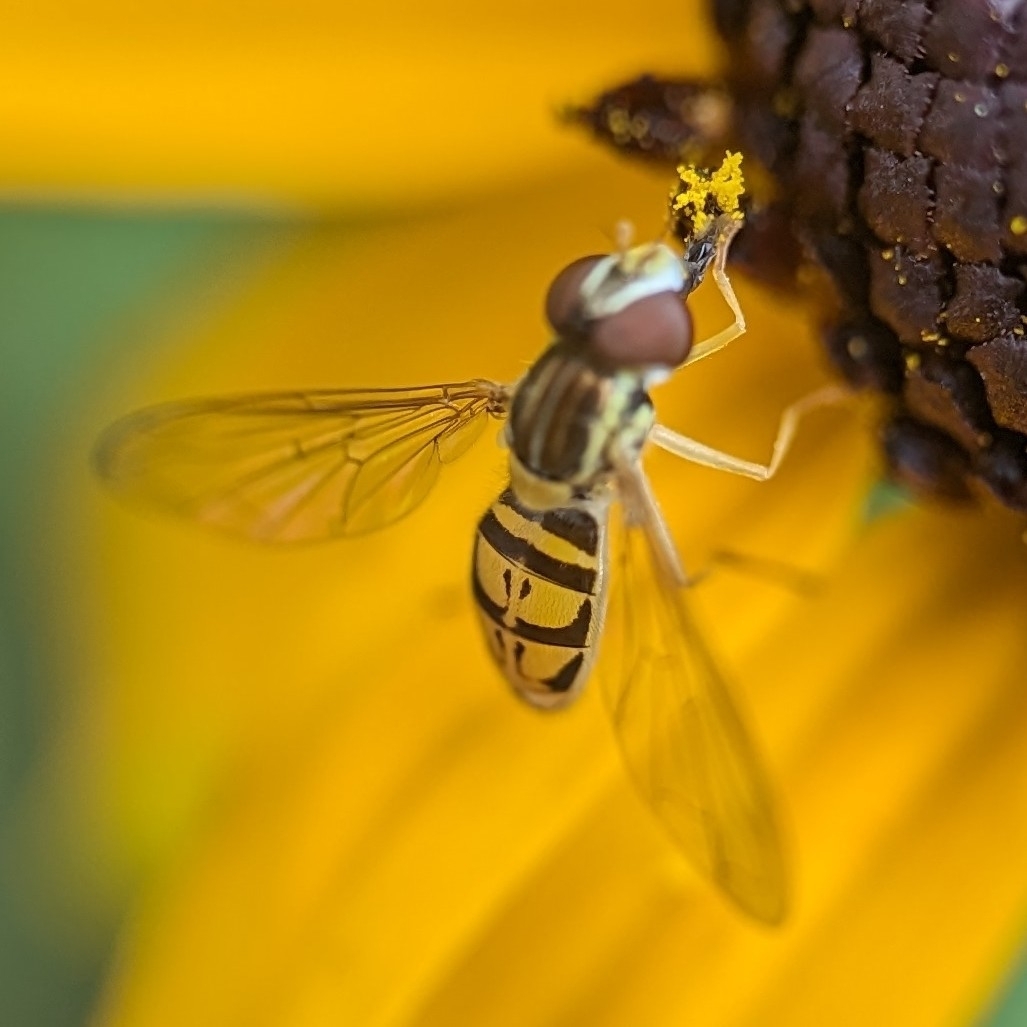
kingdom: Animalia
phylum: Arthropoda
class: Insecta
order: Diptera
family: Syrphidae
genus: Toxomerus
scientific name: Toxomerus marginatus
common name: Syrphid fly
